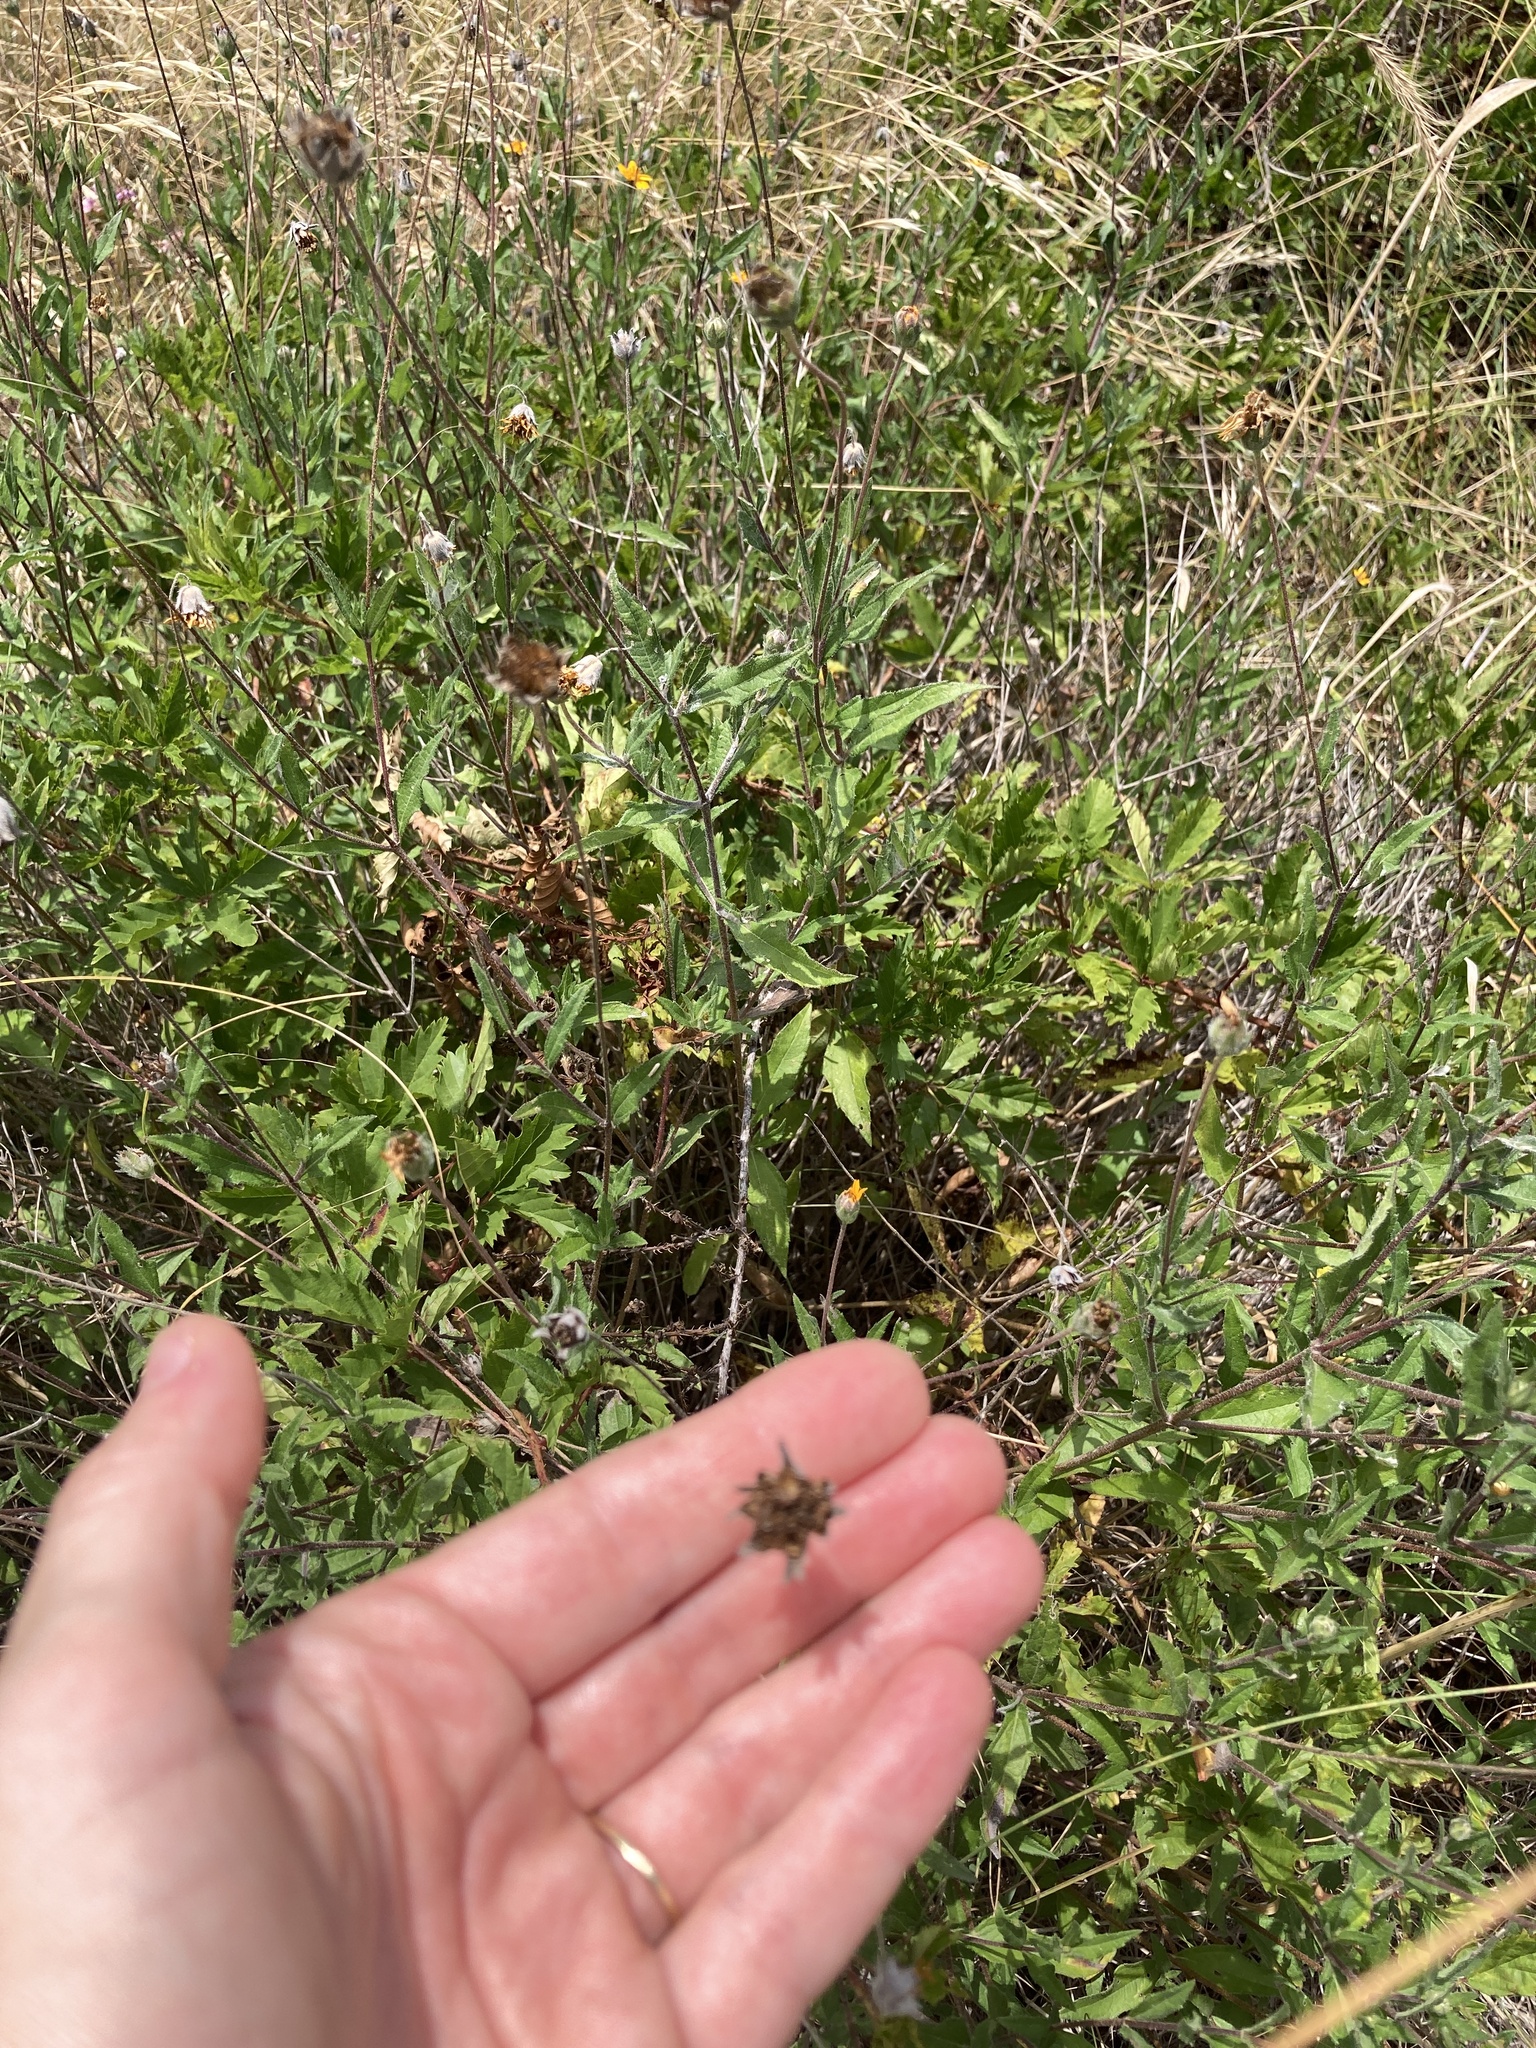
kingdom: Plantae
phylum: Tracheophyta
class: Magnoliopsida
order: Asterales
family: Asteraceae
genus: Wedelia
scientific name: Wedelia acapulcensis
